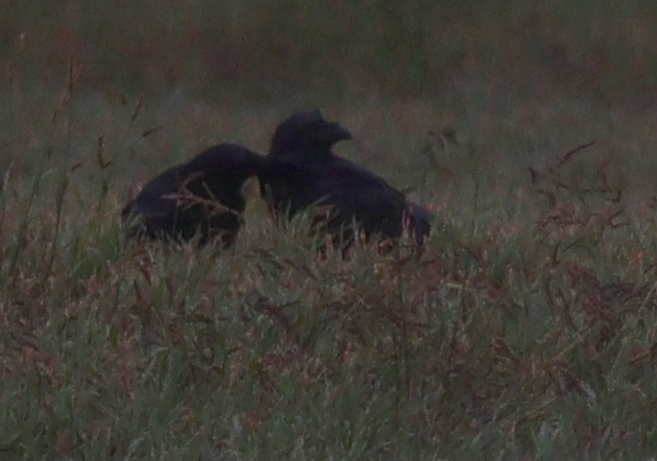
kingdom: Animalia
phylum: Chordata
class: Aves
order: Passeriformes
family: Corvidae
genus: Corvus
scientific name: Corvus corax
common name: Common raven
